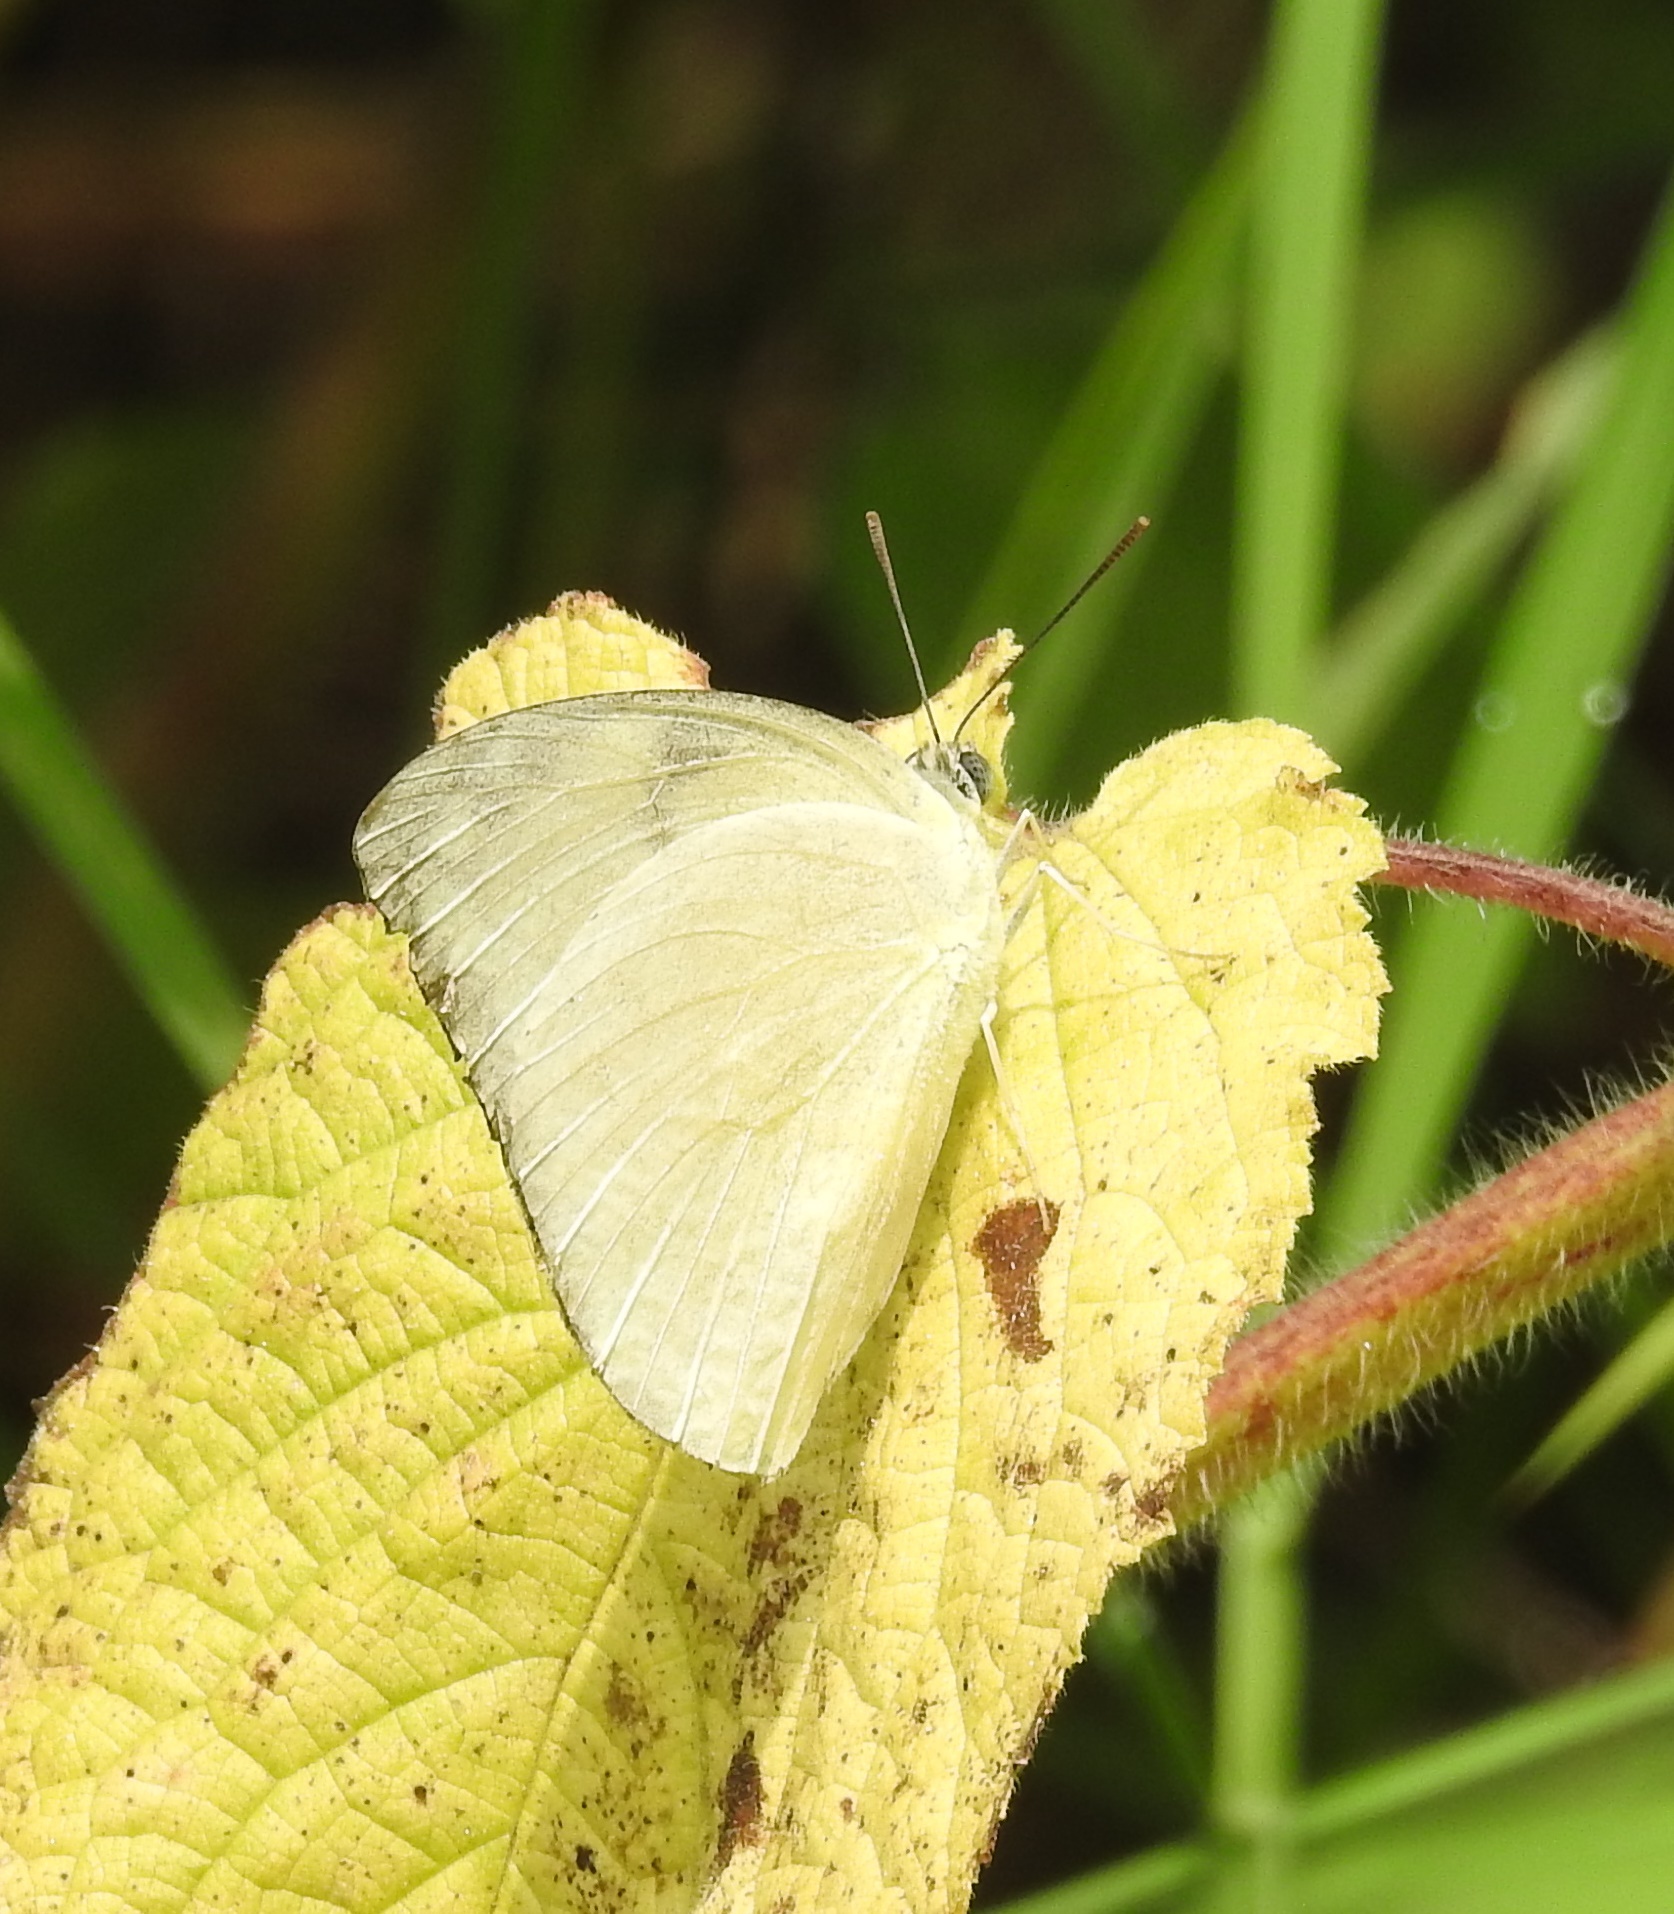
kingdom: Animalia
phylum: Arthropoda
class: Insecta
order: Lepidoptera
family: Pieridae
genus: Catopsilia
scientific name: Catopsilia pomona
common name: Common emigrant
